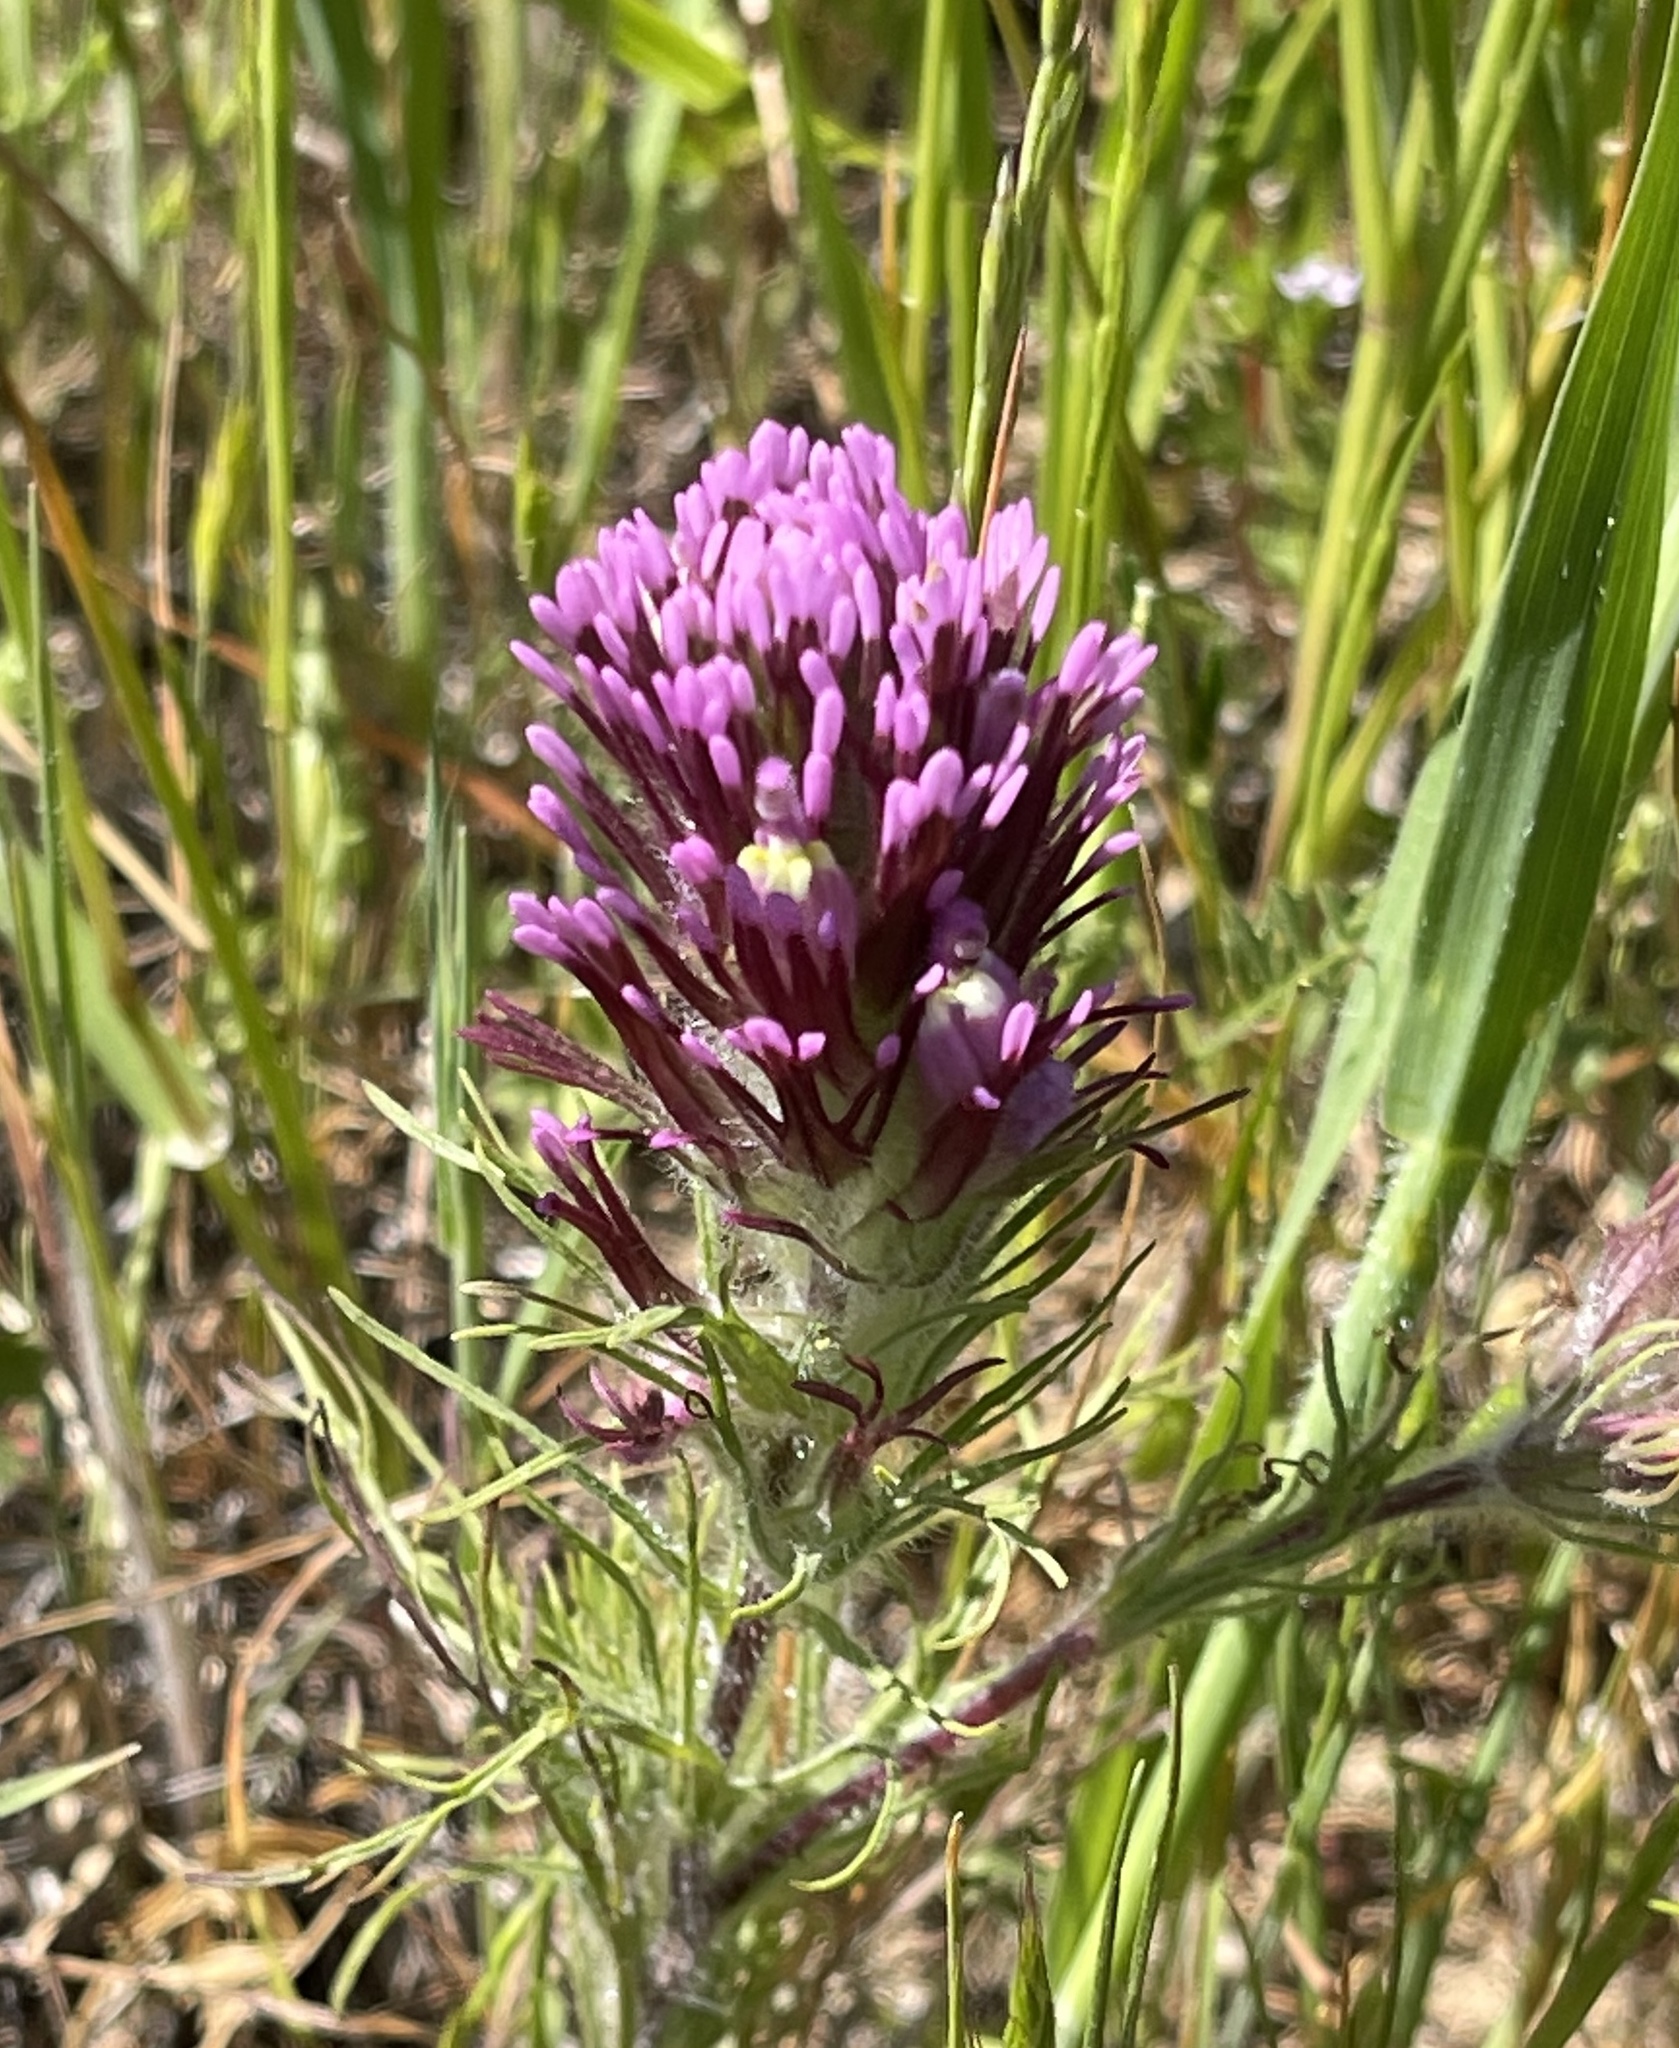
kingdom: Plantae
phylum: Tracheophyta
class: Magnoliopsida
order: Lamiales
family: Orobanchaceae
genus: Castilleja
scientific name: Castilleja exserta
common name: Purple owl-clover
